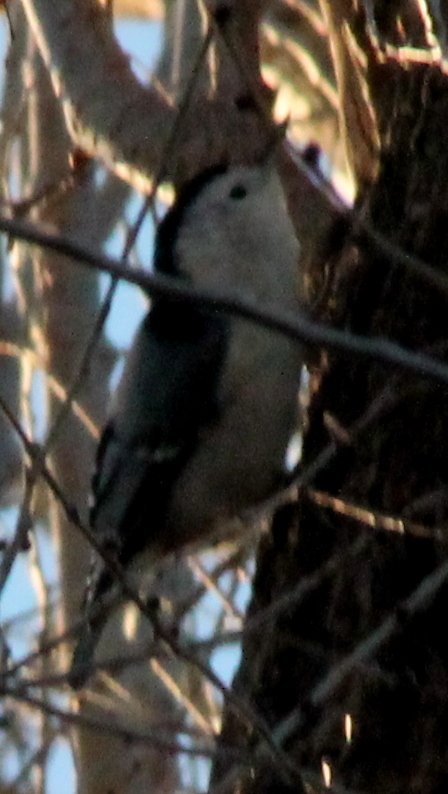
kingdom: Animalia
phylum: Chordata
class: Aves
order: Passeriformes
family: Sittidae
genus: Sitta
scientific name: Sitta carolinensis
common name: White-breasted nuthatch
